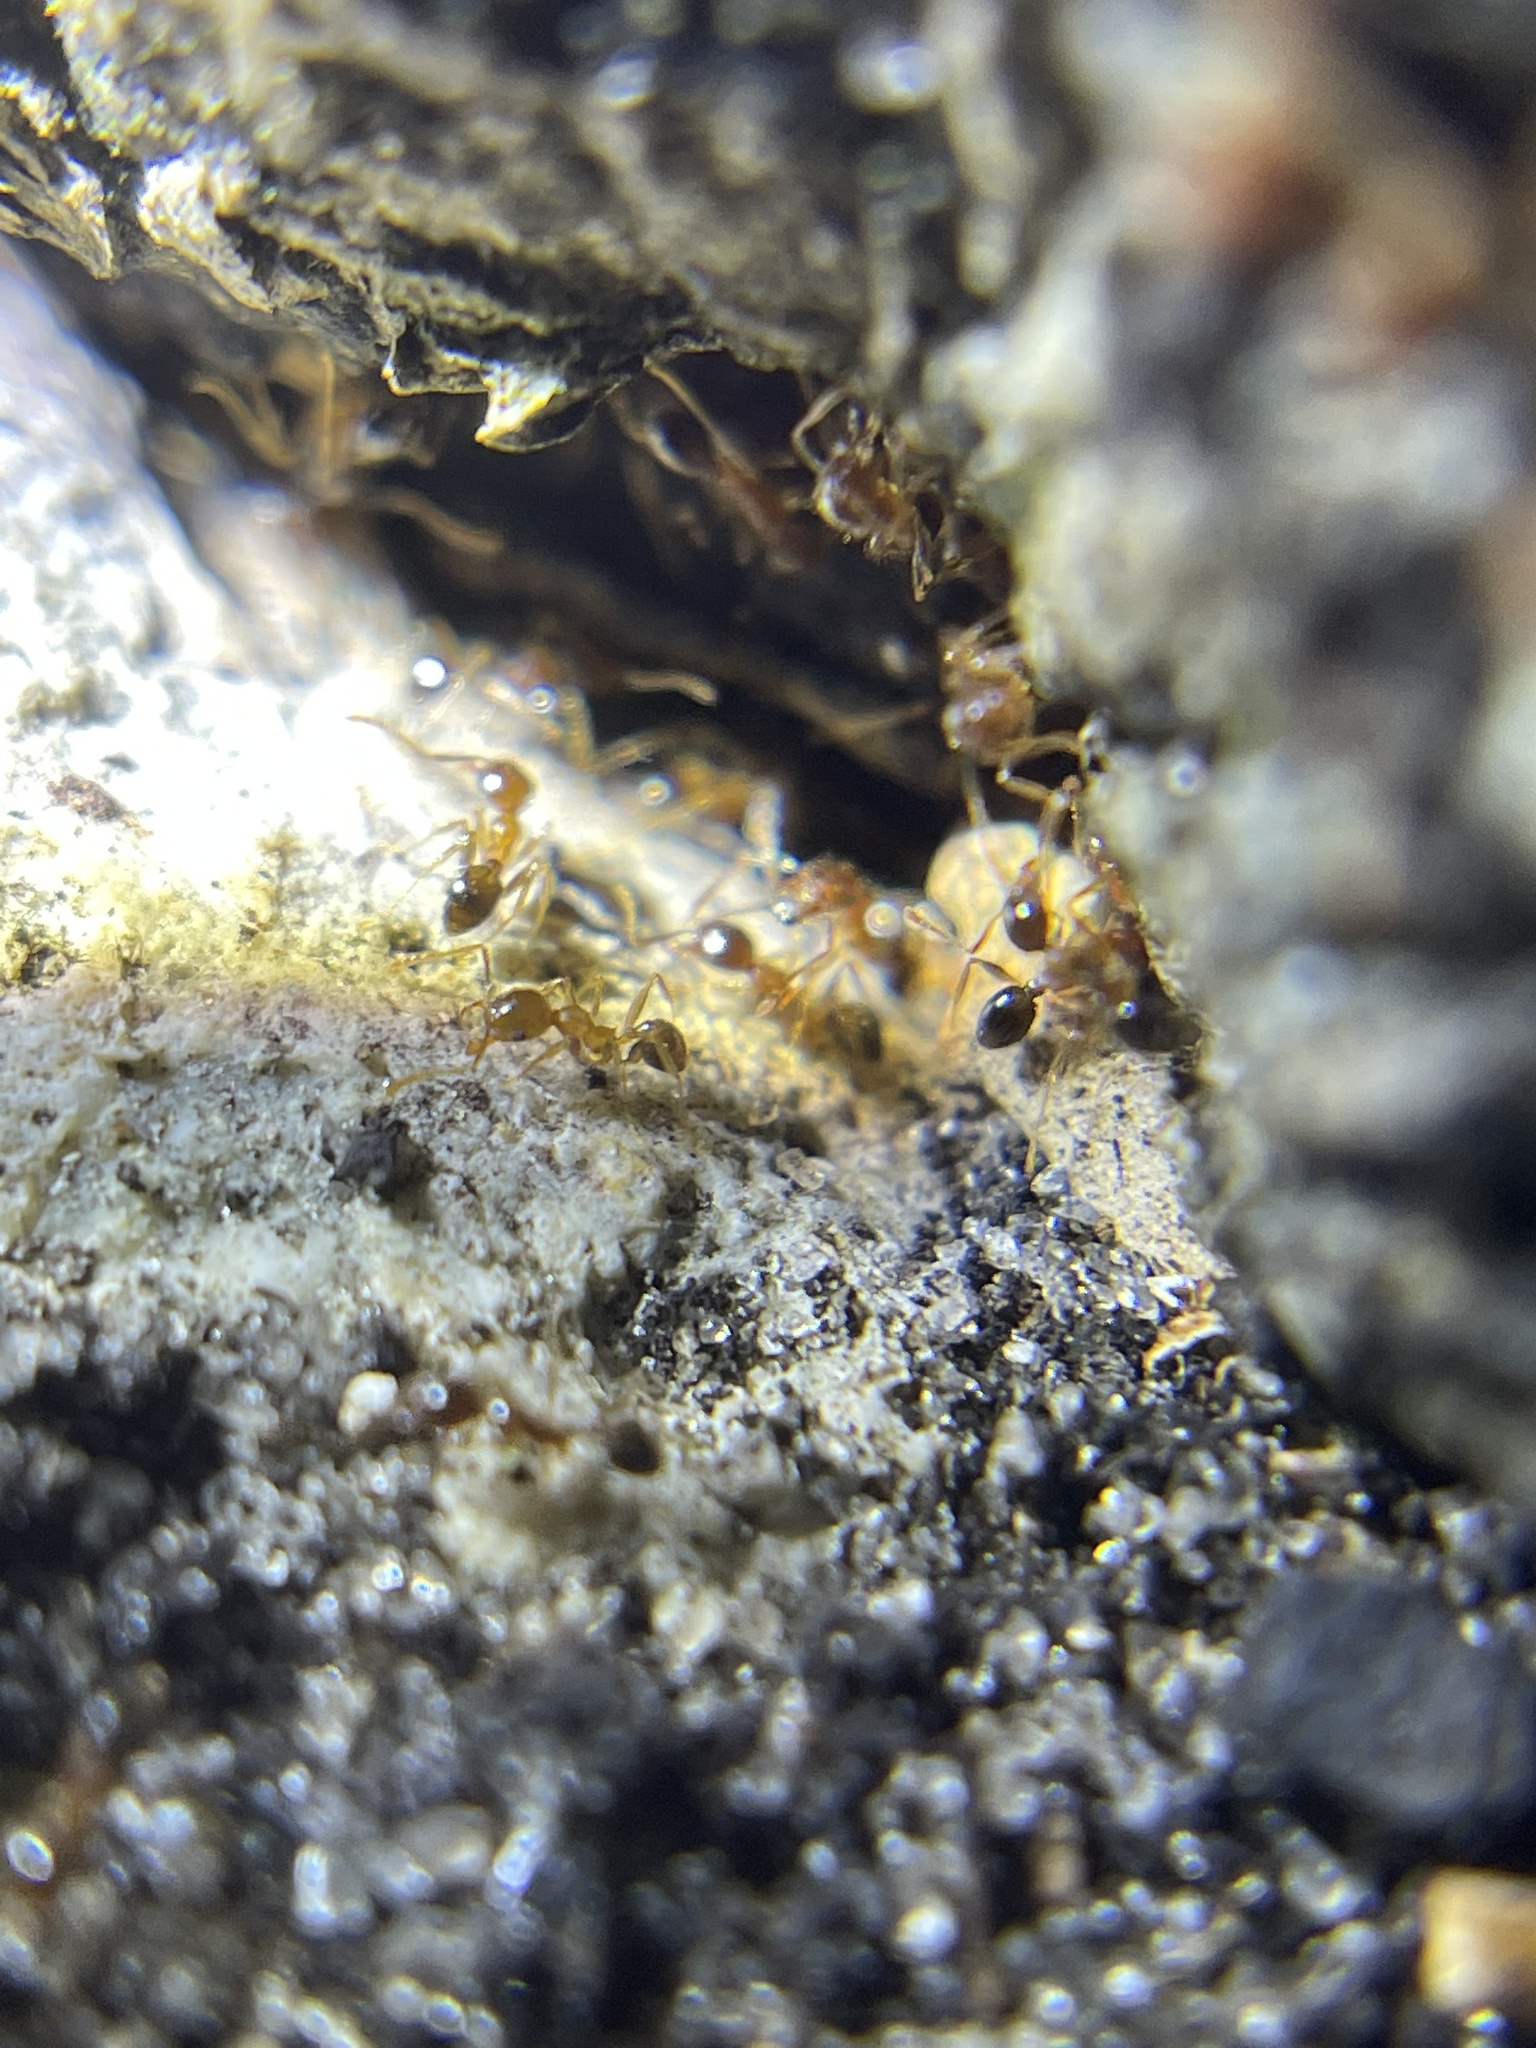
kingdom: Animalia
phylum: Arthropoda
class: Insecta
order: Hymenoptera
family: Formicidae
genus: Pheidole
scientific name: Pheidole megacephala
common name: Bigheaded ant
